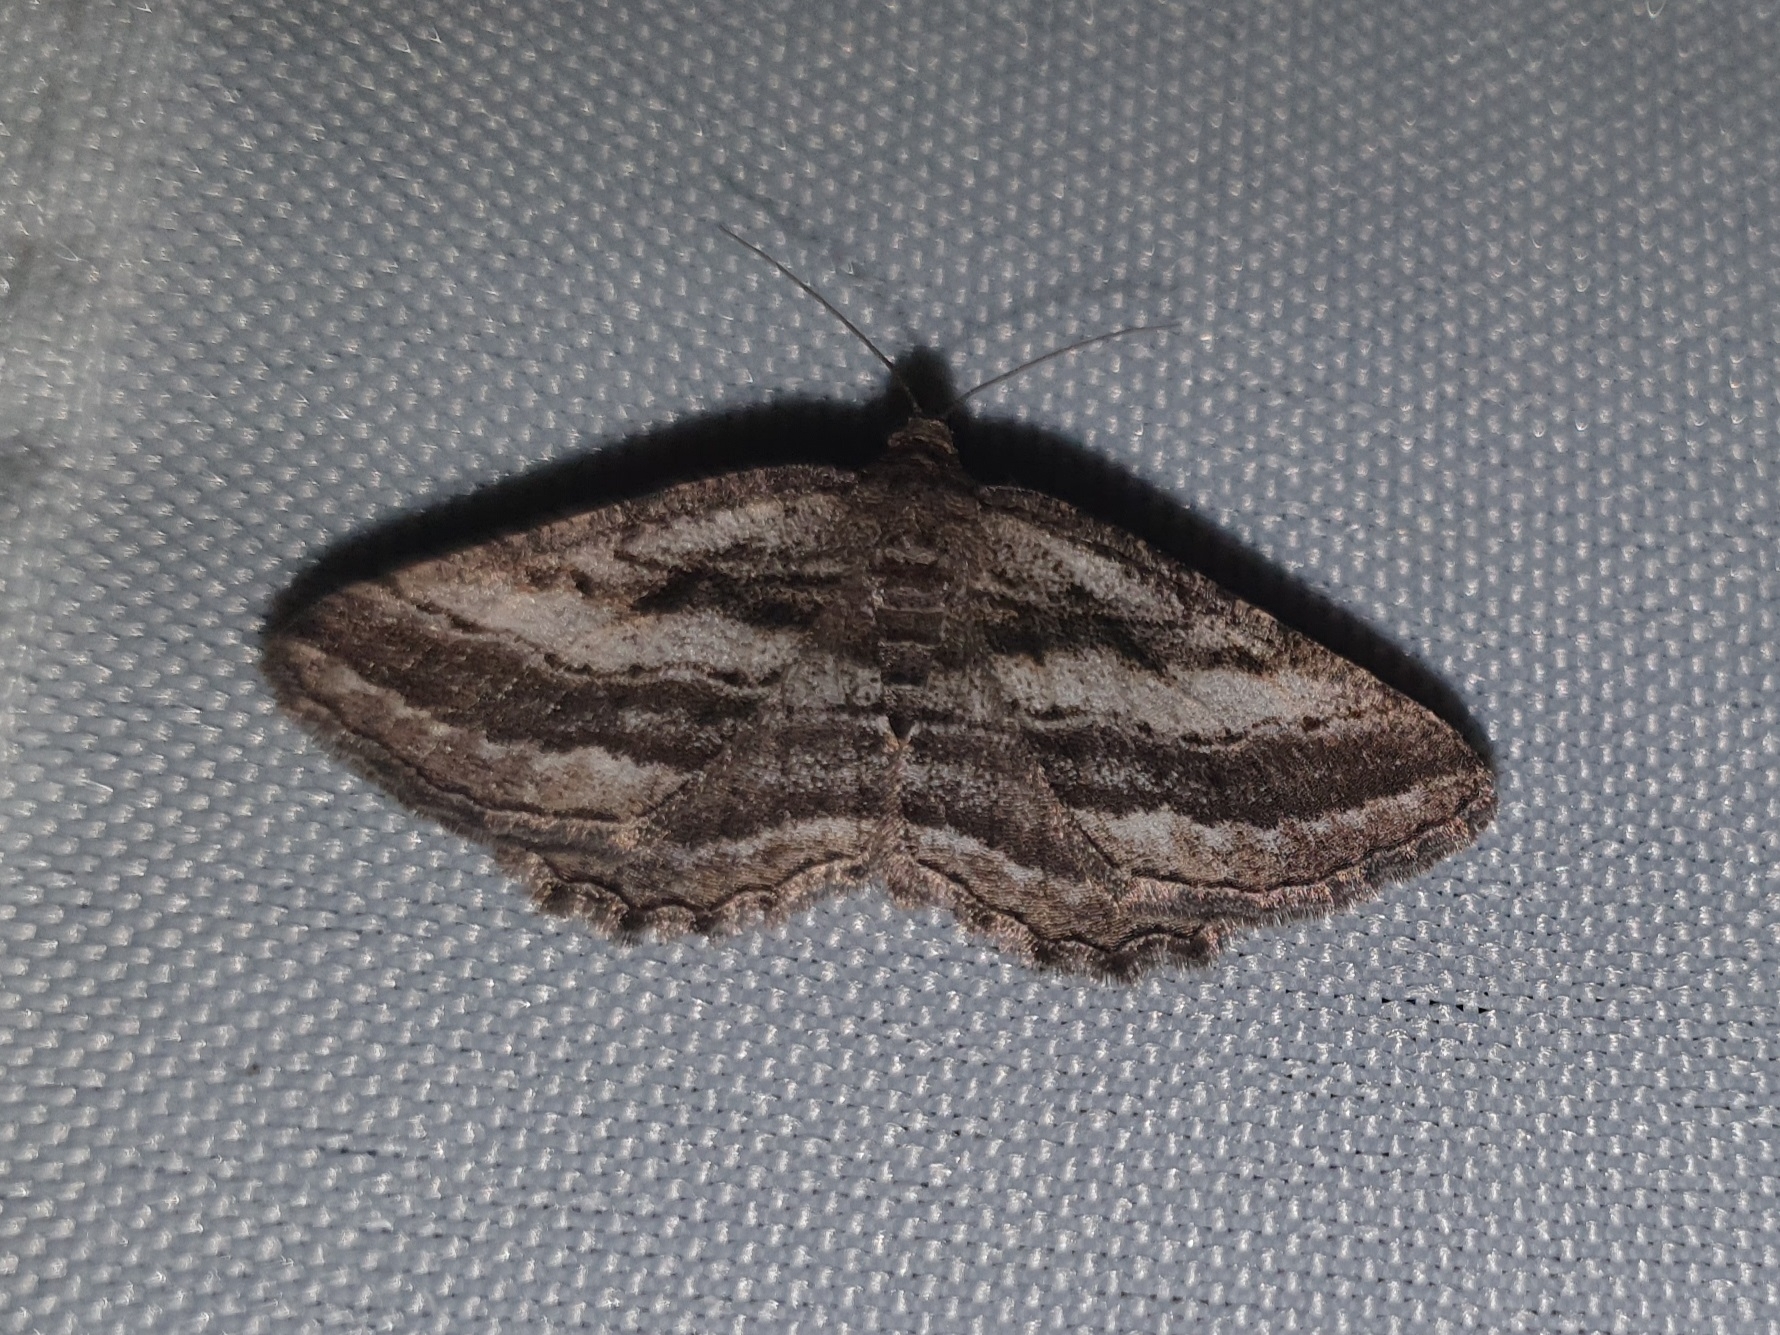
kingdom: Animalia
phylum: Arthropoda
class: Insecta
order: Lepidoptera
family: Geometridae
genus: Rhoptria
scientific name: Rhoptria asperaria
